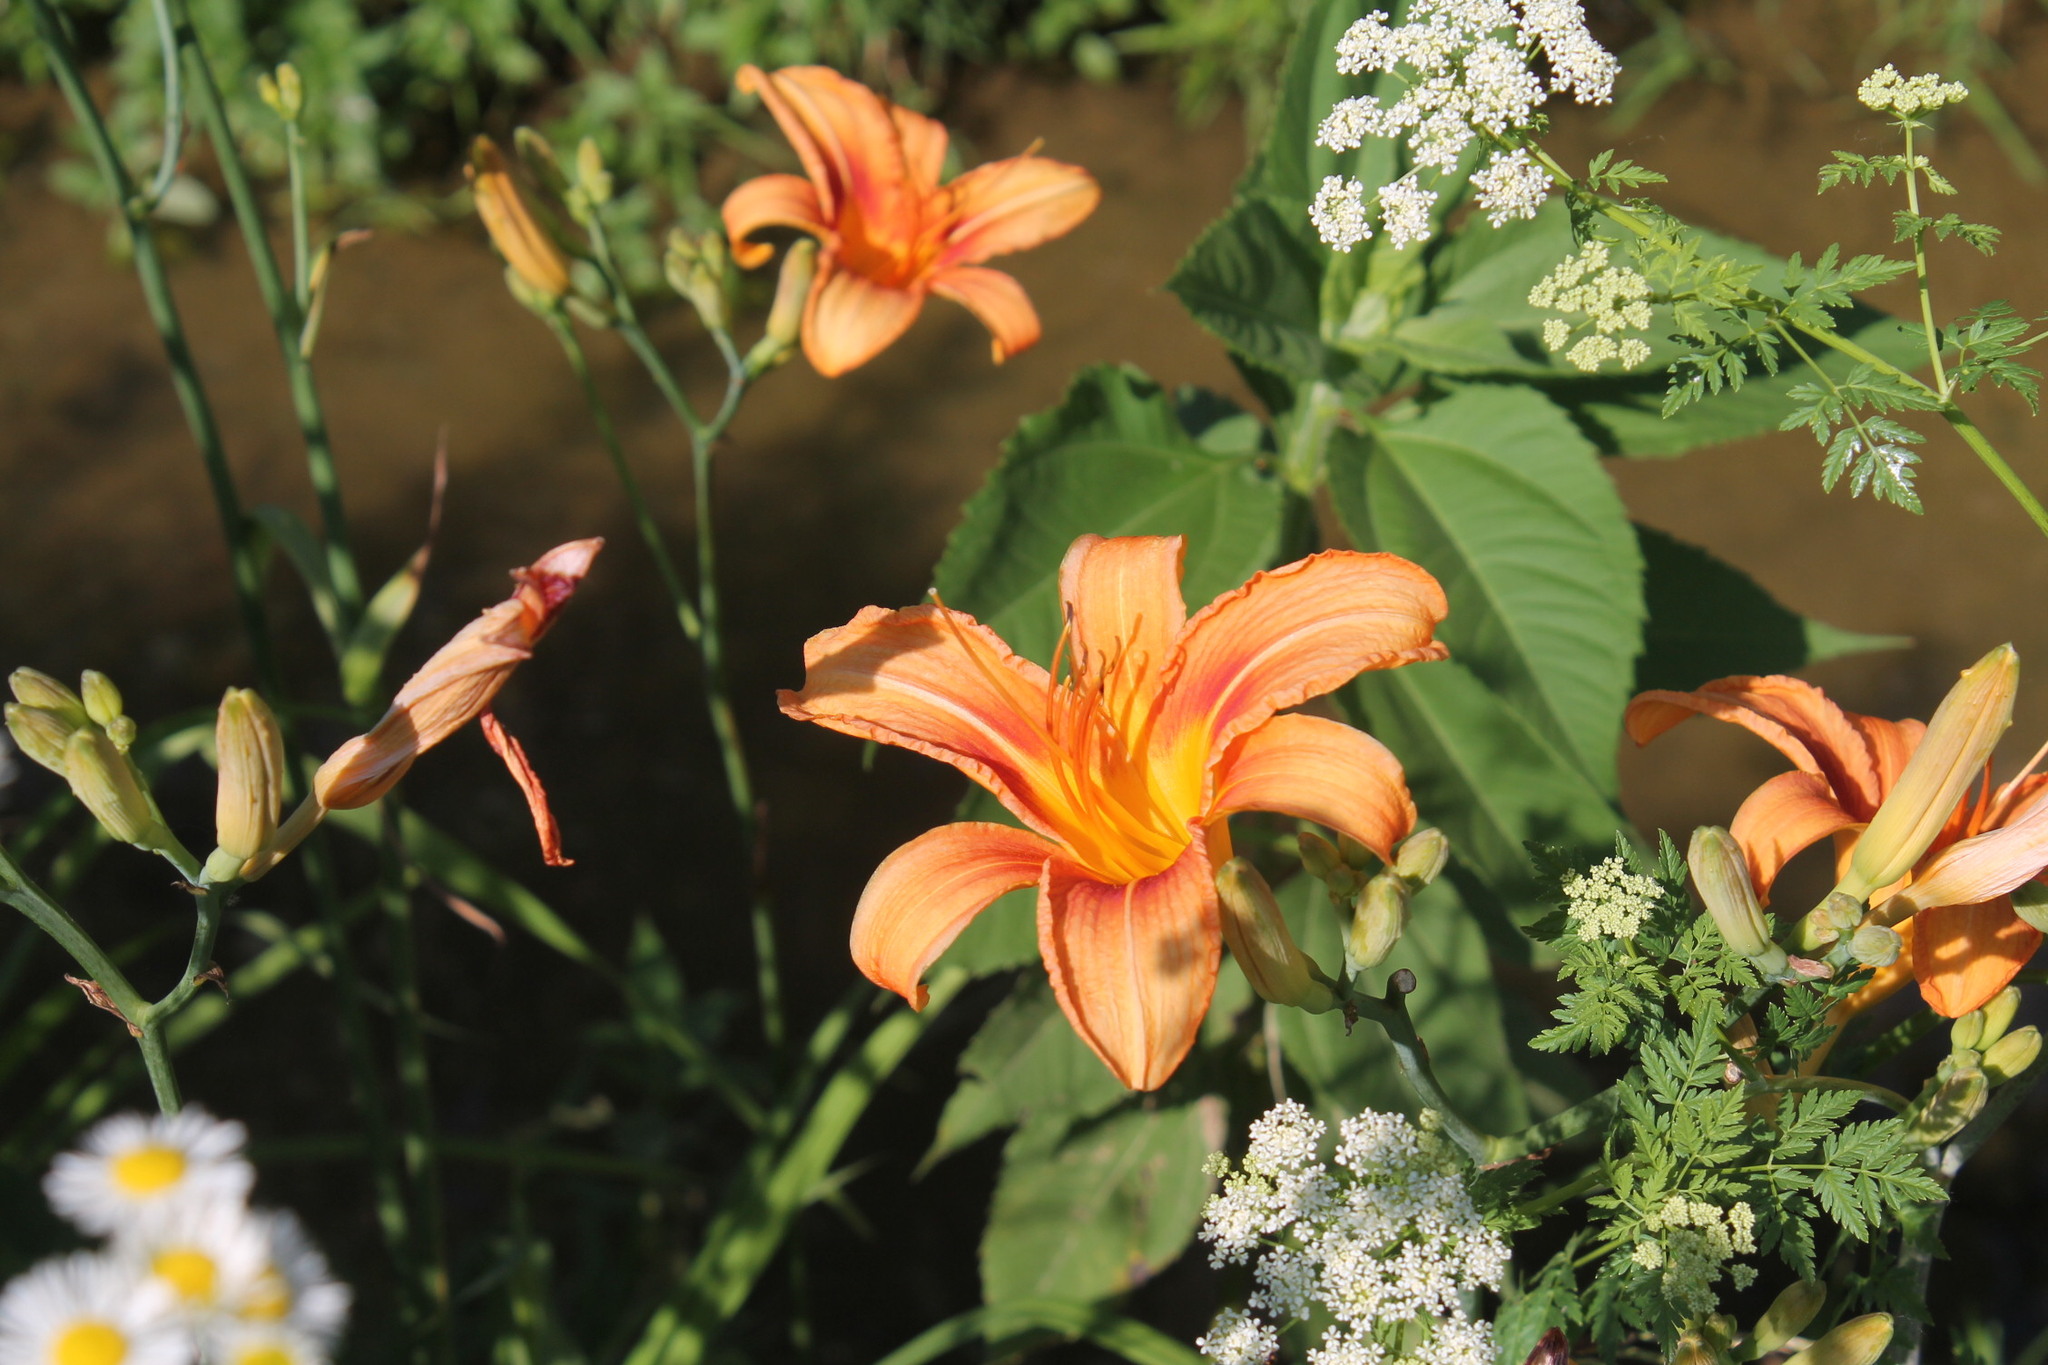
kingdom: Plantae
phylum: Tracheophyta
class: Liliopsida
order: Asparagales
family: Asphodelaceae
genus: Hemerocallis
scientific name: Hemerocallis fulva
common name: Orange day-lily
